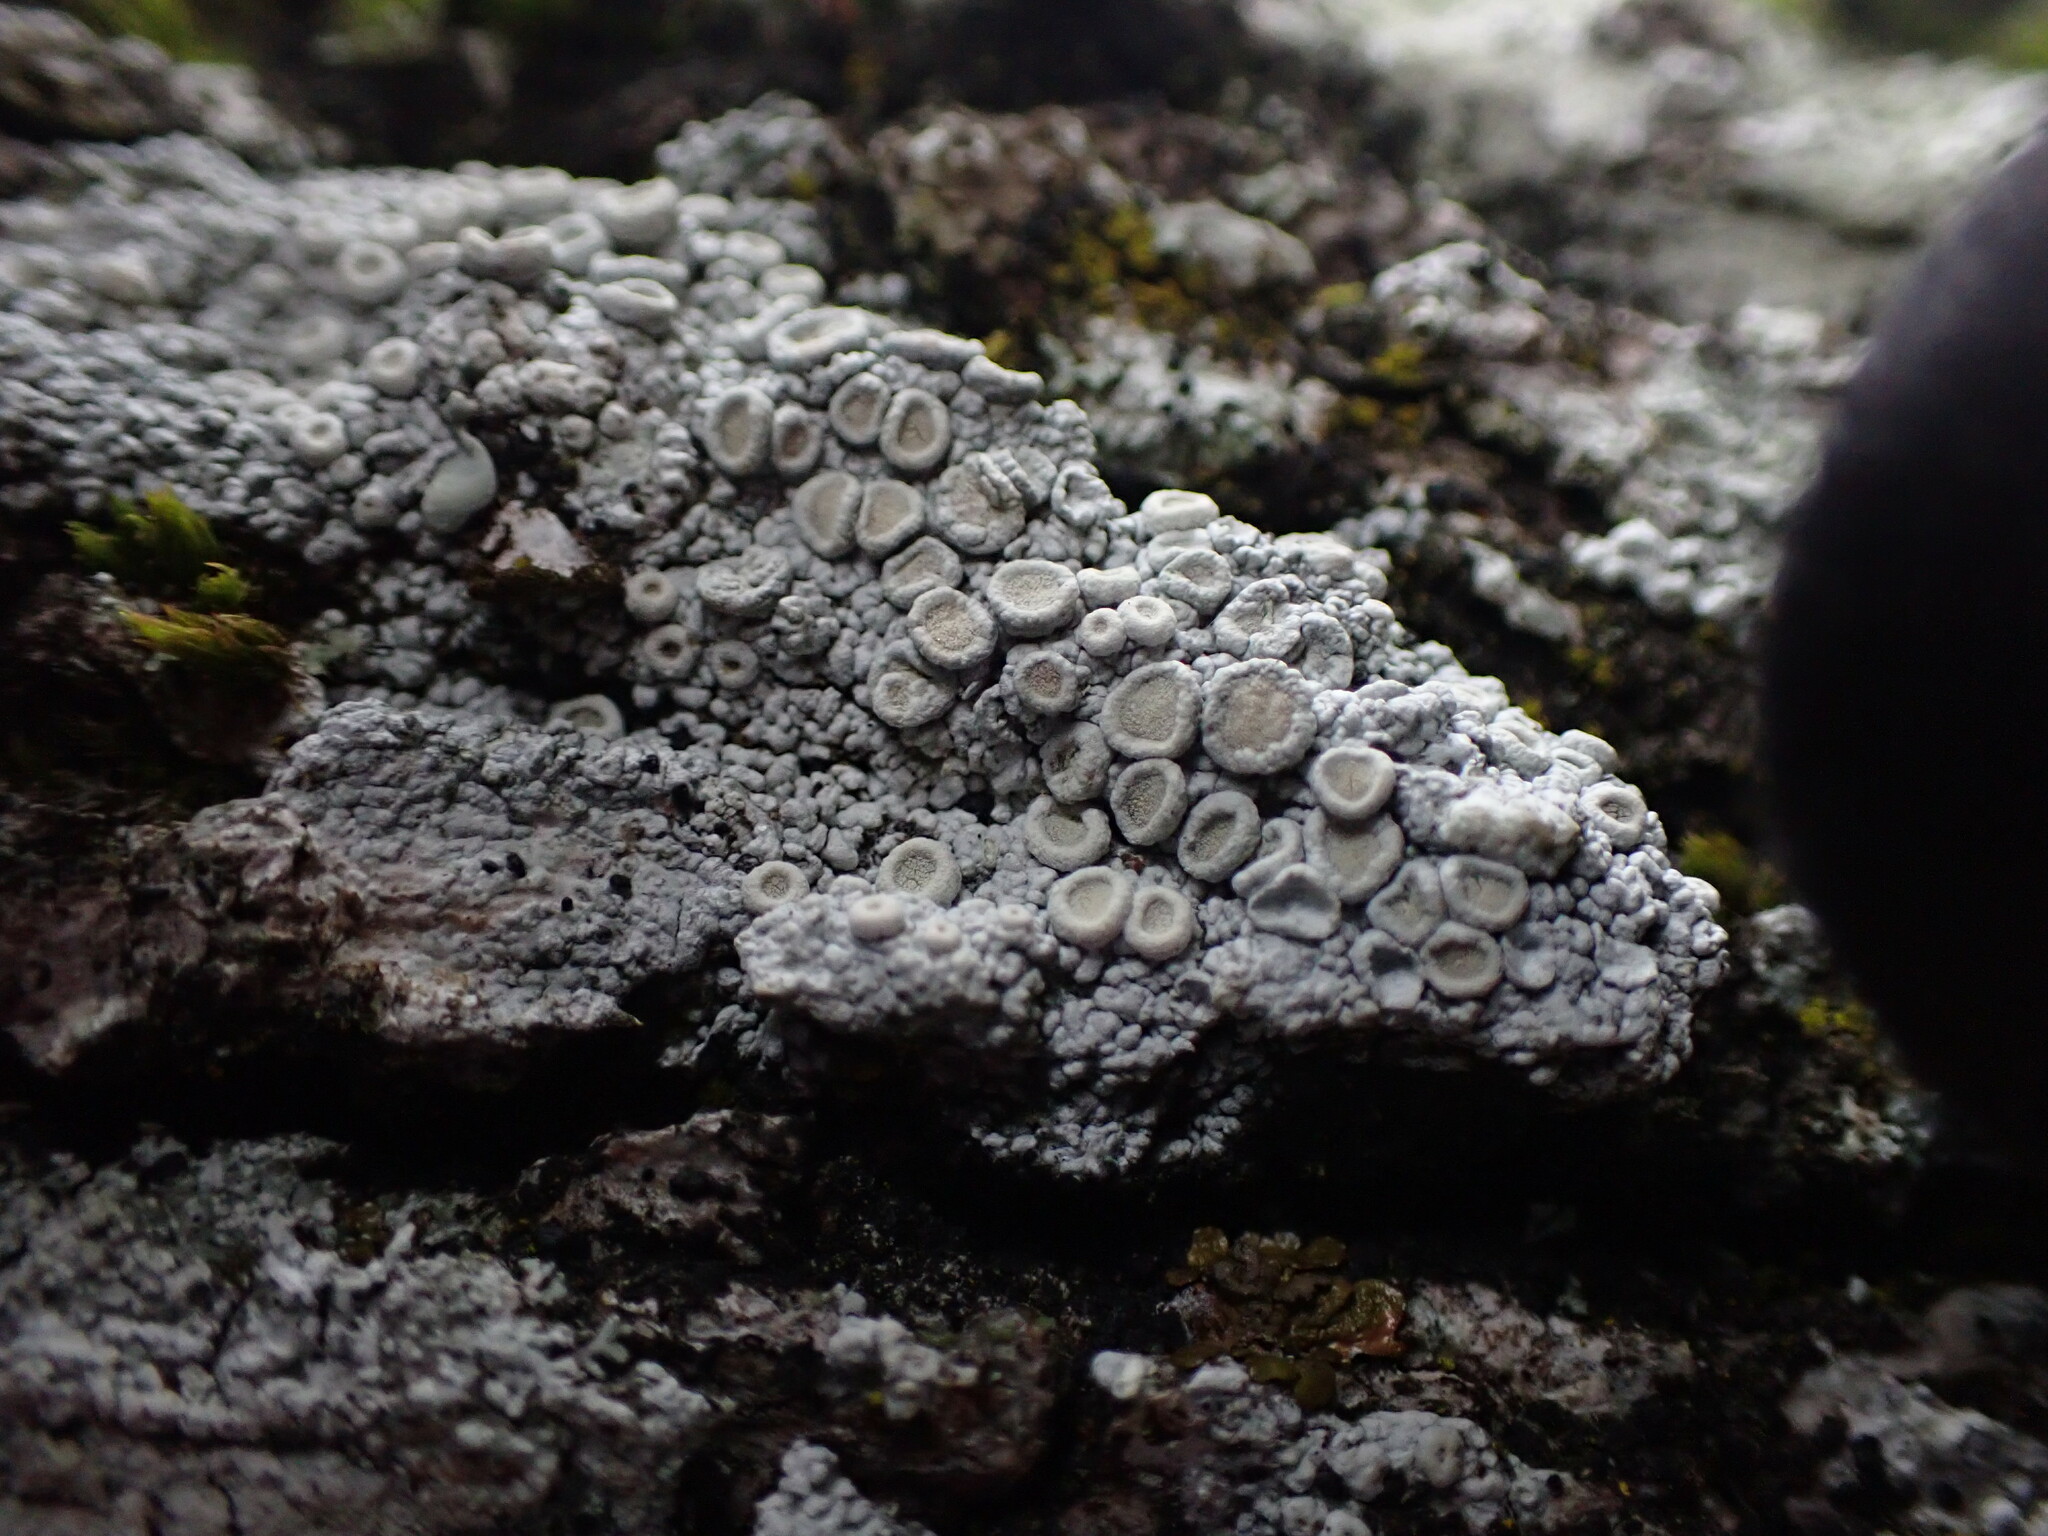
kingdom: Fungi
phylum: Ascomycota
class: Lecanoromycetes
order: Pertusariales
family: Ochrolechiaceae
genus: Ochrolechia
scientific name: Ochrolechia farinacea
